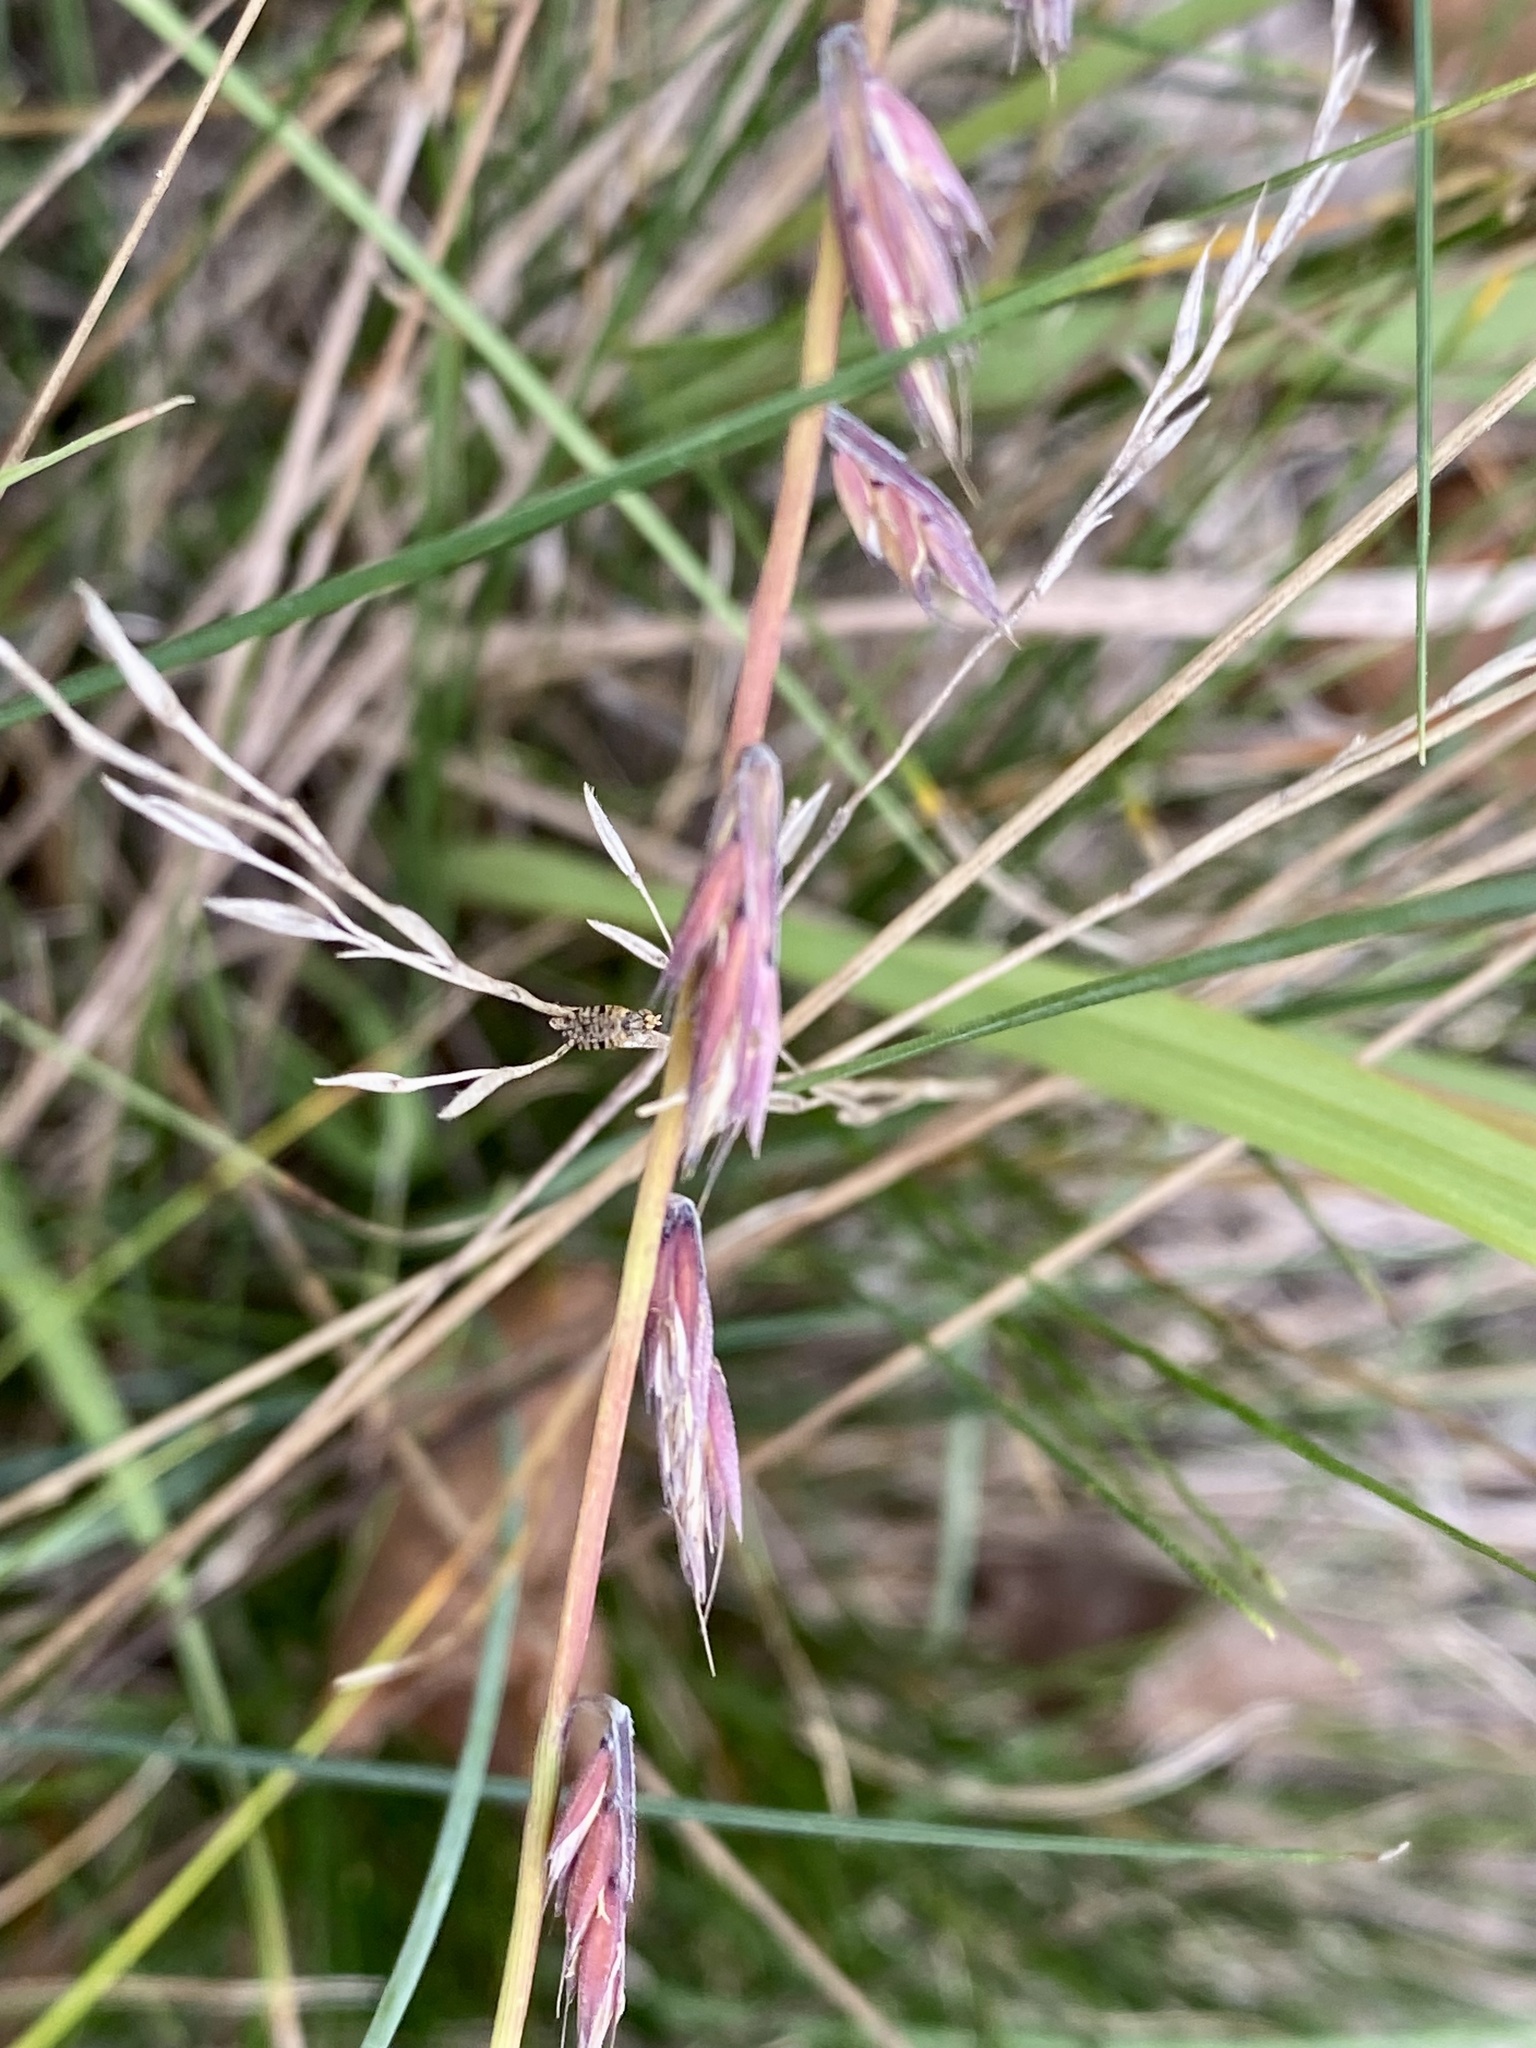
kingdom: Plantae
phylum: Tracheophyta
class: Liliopsida
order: Poales
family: Poaceae
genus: Bouteloua
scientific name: Bouteloua curtipendula
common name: Side-oats grama
